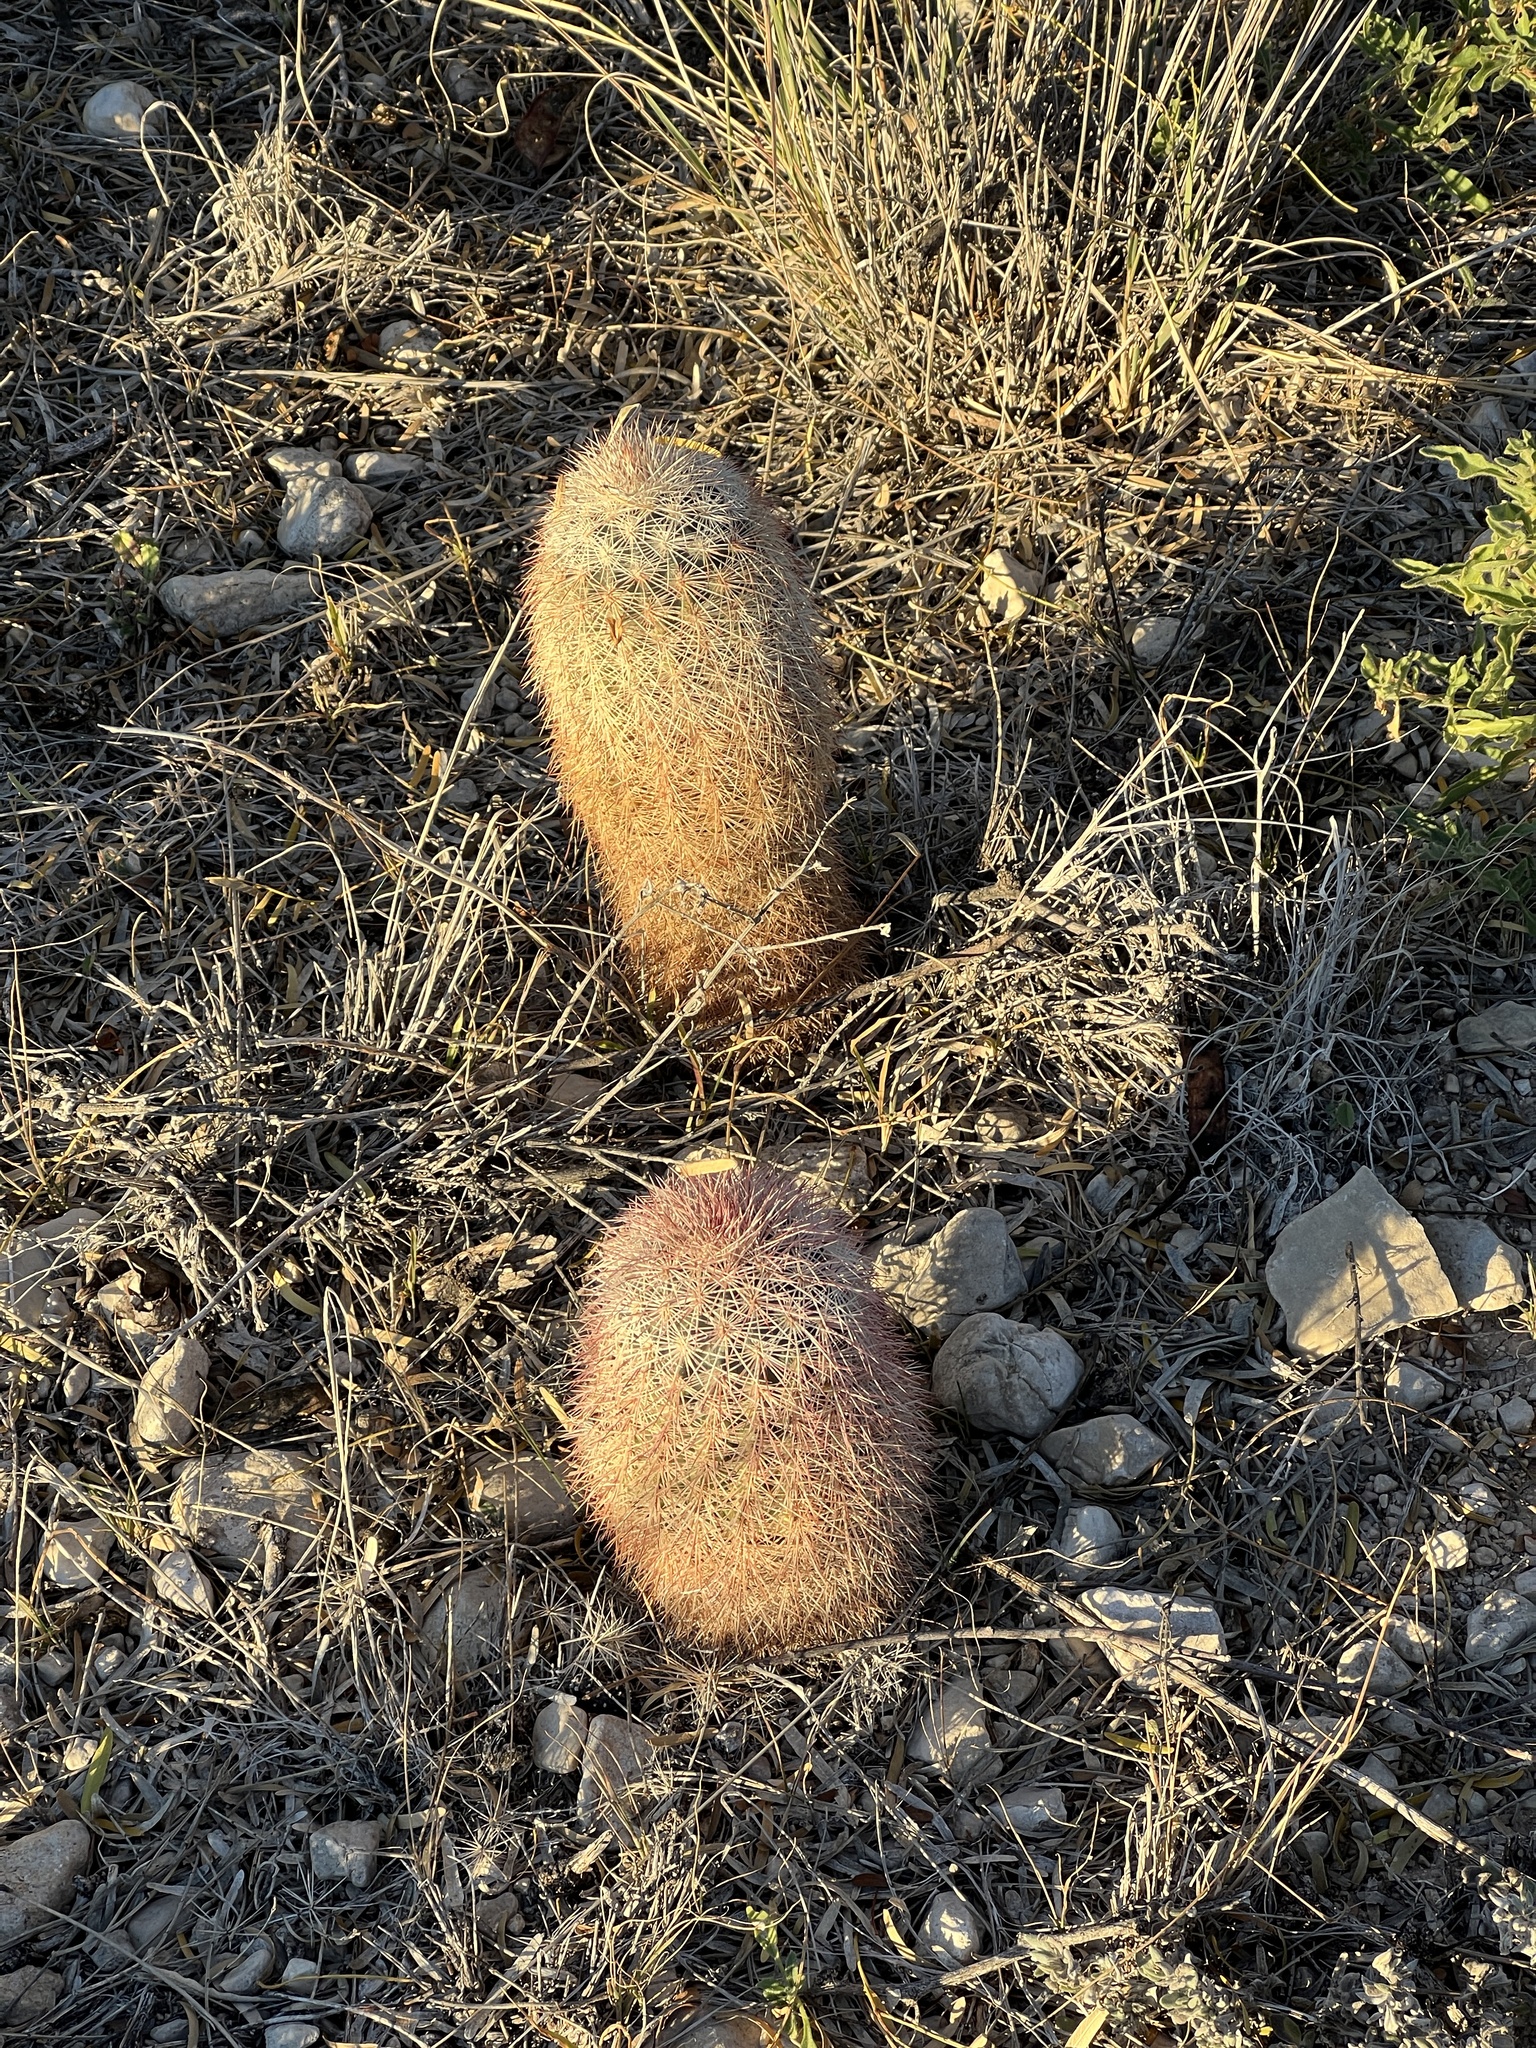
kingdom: Plantae
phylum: Tracheophyta
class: Magnoliopsida
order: Caryophyllales
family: Cactaceae
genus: Echinocereus
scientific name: Echinocereus dasyacanthus
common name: Spiny hedgehog cactus
